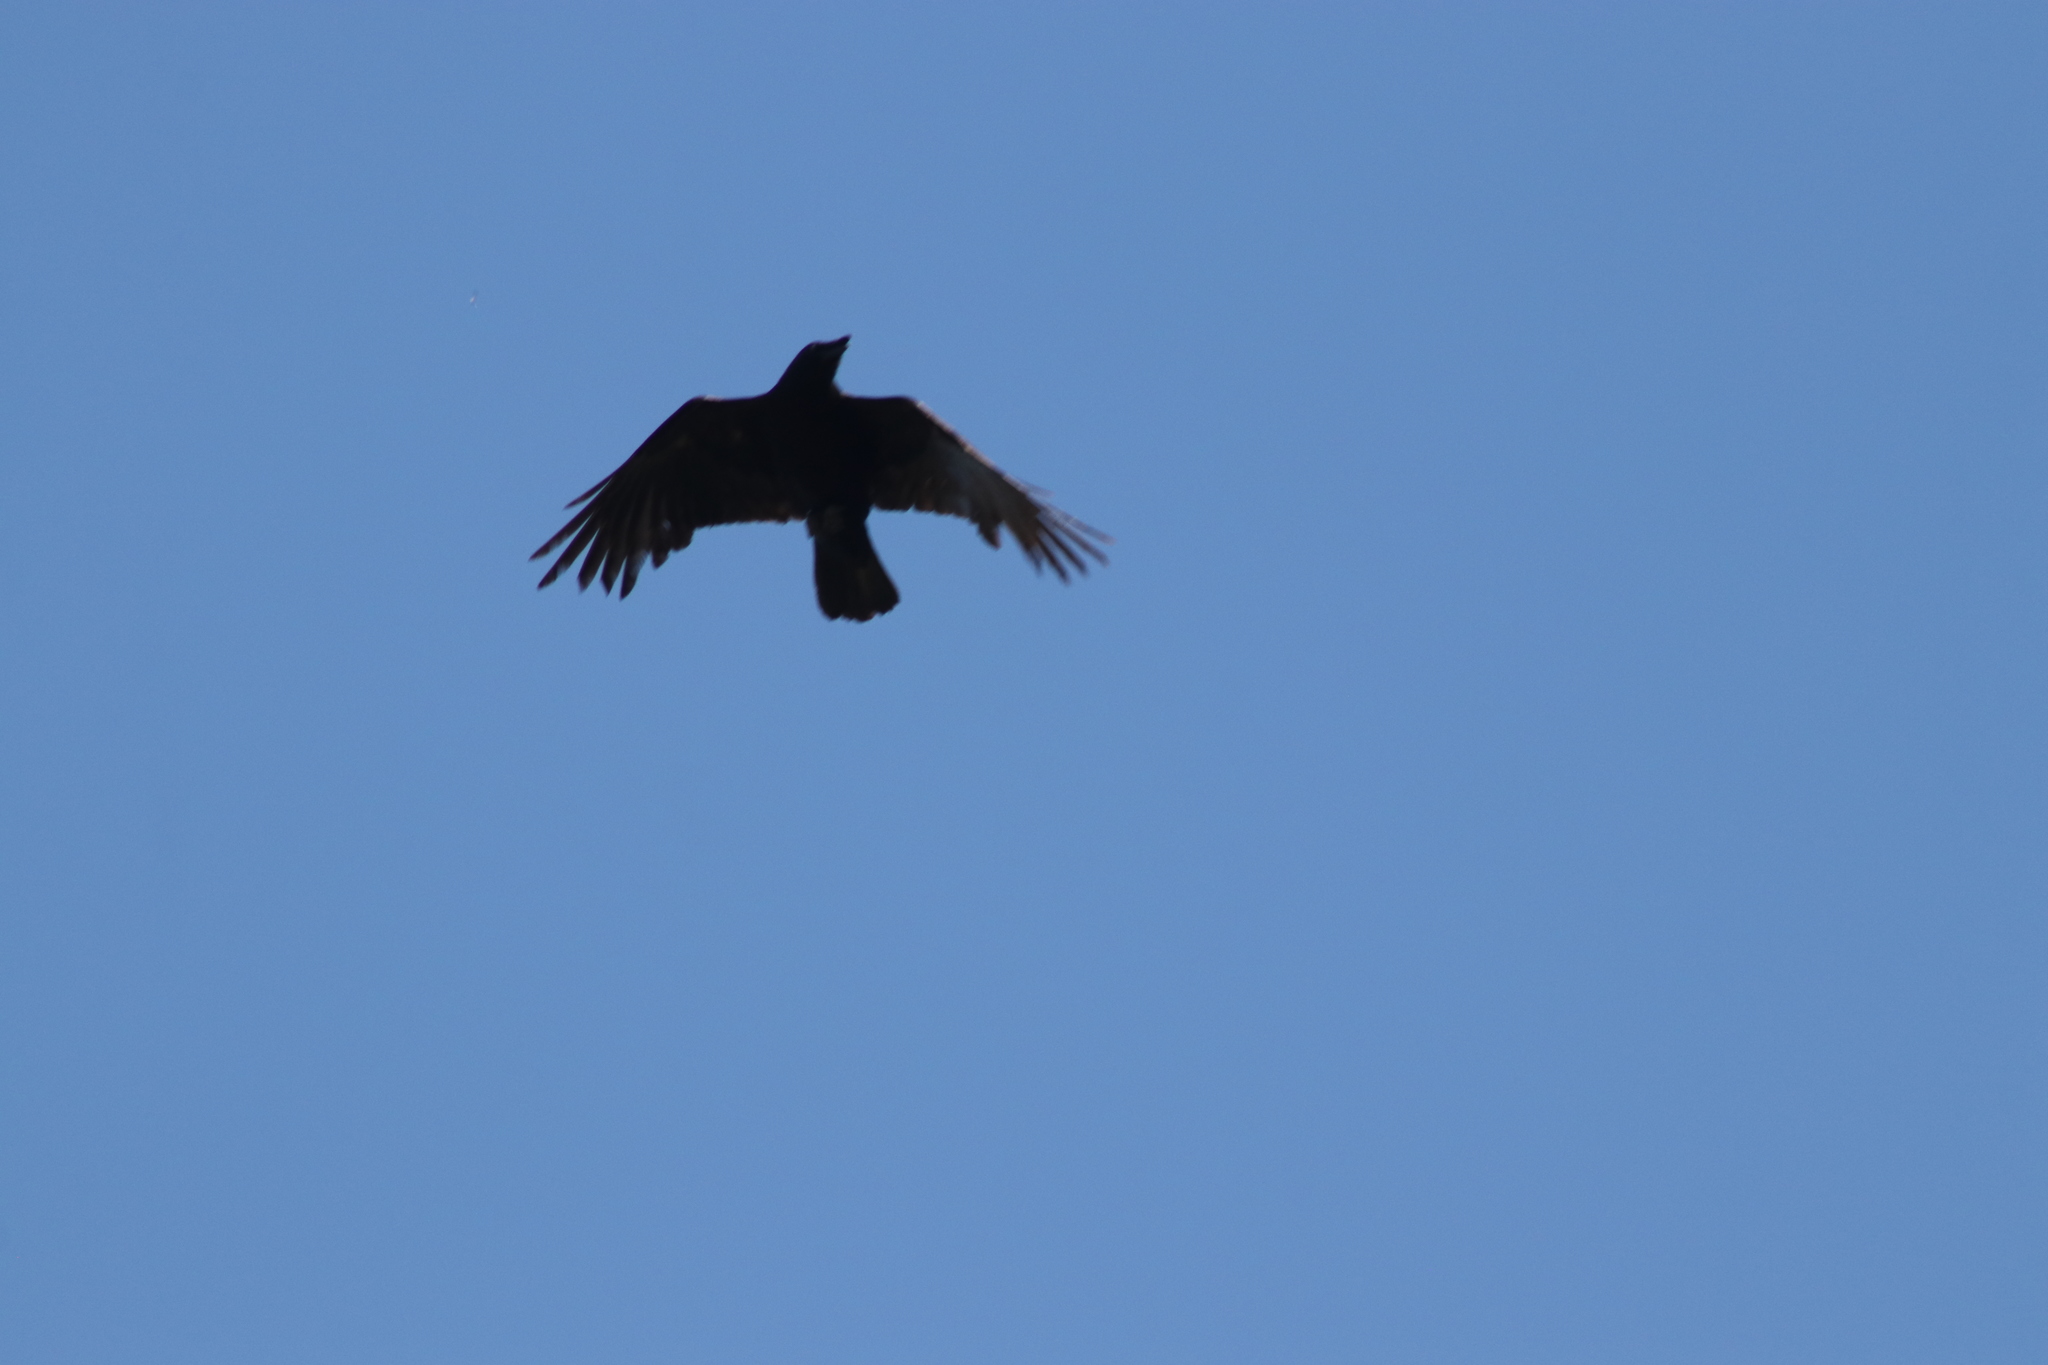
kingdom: Animalia
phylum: Chordata
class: Aves
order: Passeriformes
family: Corvidae
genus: Corvus
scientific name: Corvus brachyrhynchos
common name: American crow
